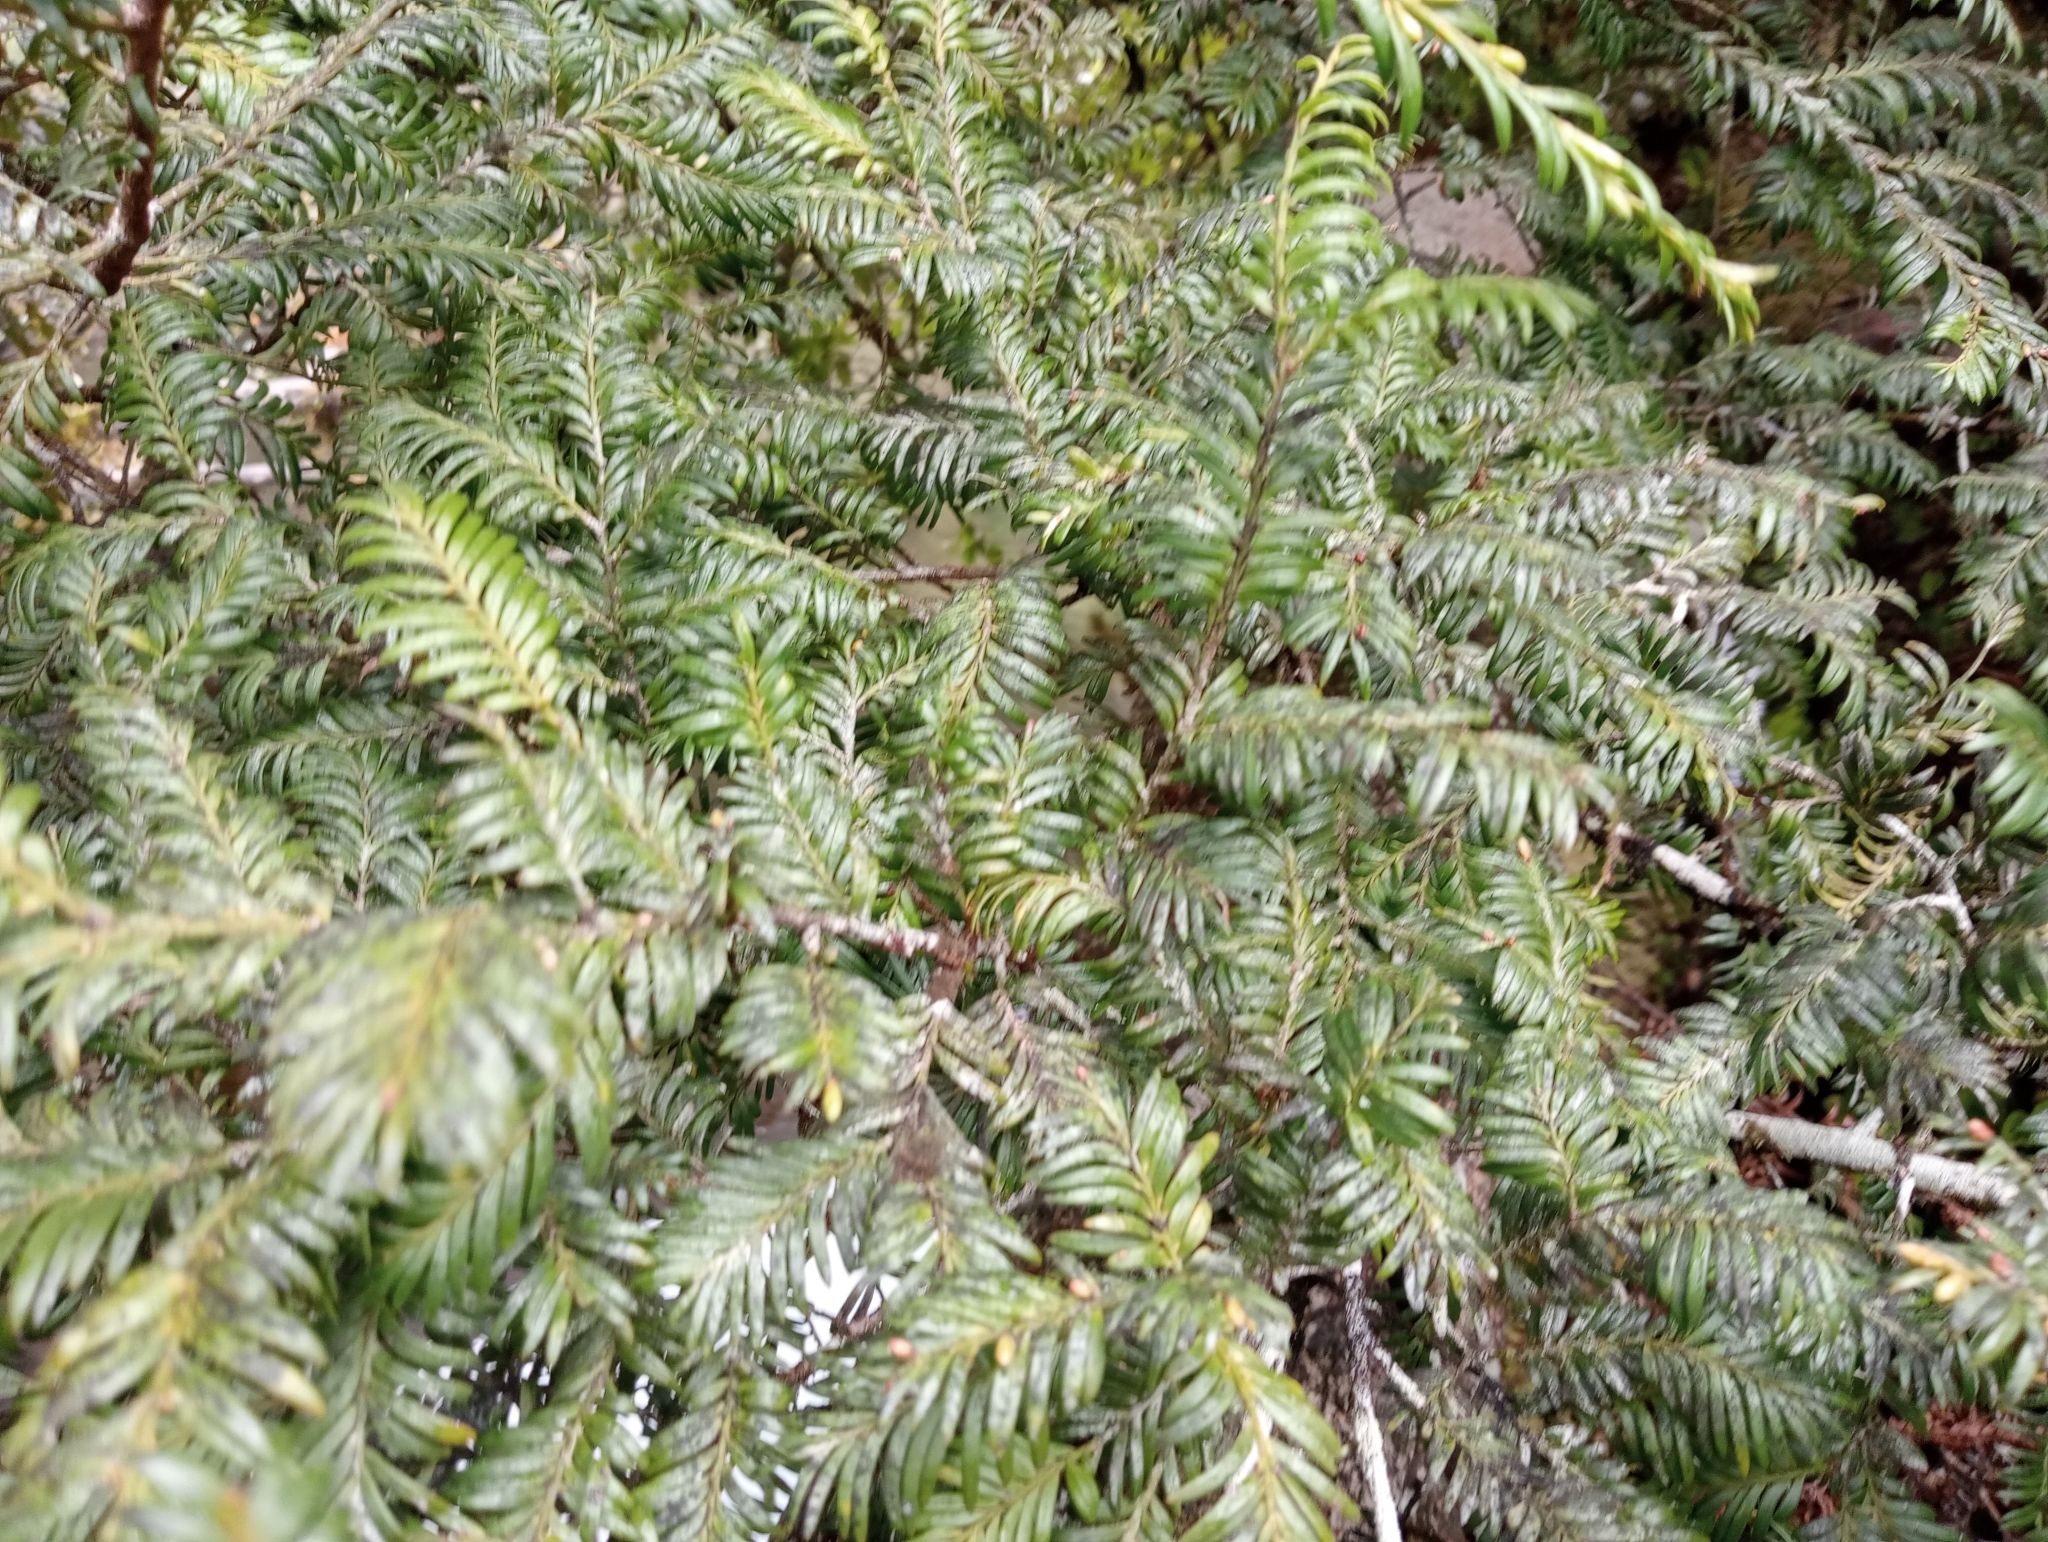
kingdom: Plantae
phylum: Tracheophyta
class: Pinopsida
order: Pinales
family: Podocarpaceae
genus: Prumnopitys
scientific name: Prumnopitys ferruginea
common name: Brown pine
